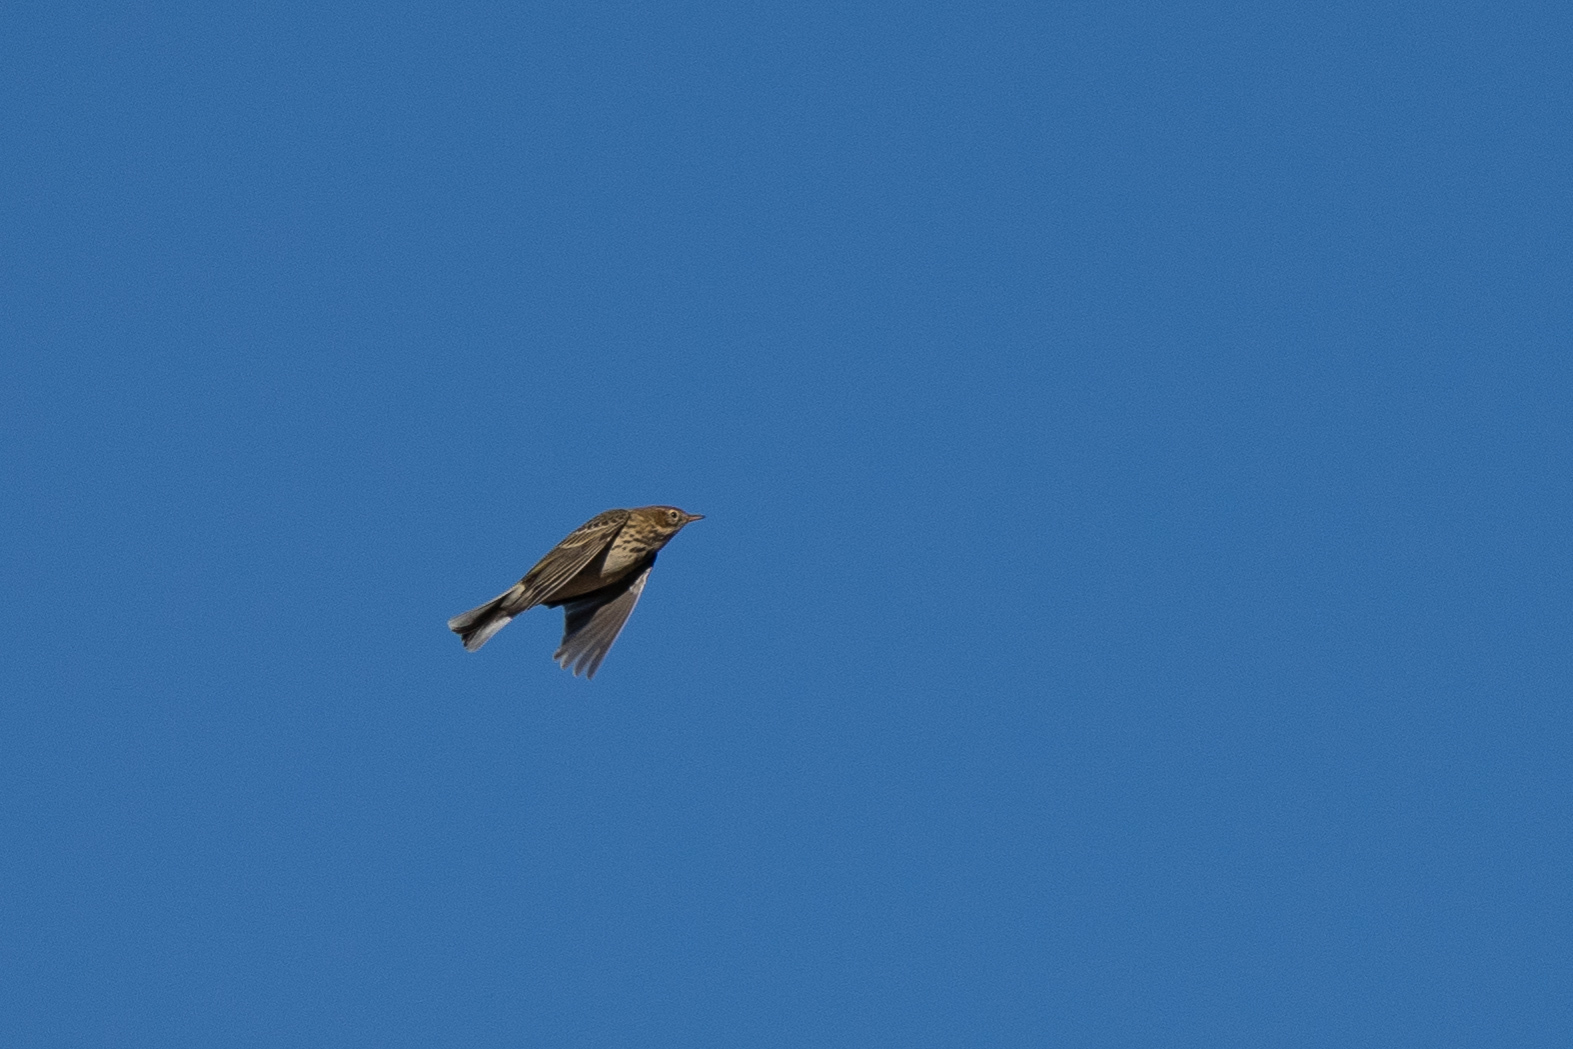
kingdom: Animalia
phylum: Chordata
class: Aves
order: Passeriformes
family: Motacillidae
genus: Anthus
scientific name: Anthus pratensis
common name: Meadow pipit
